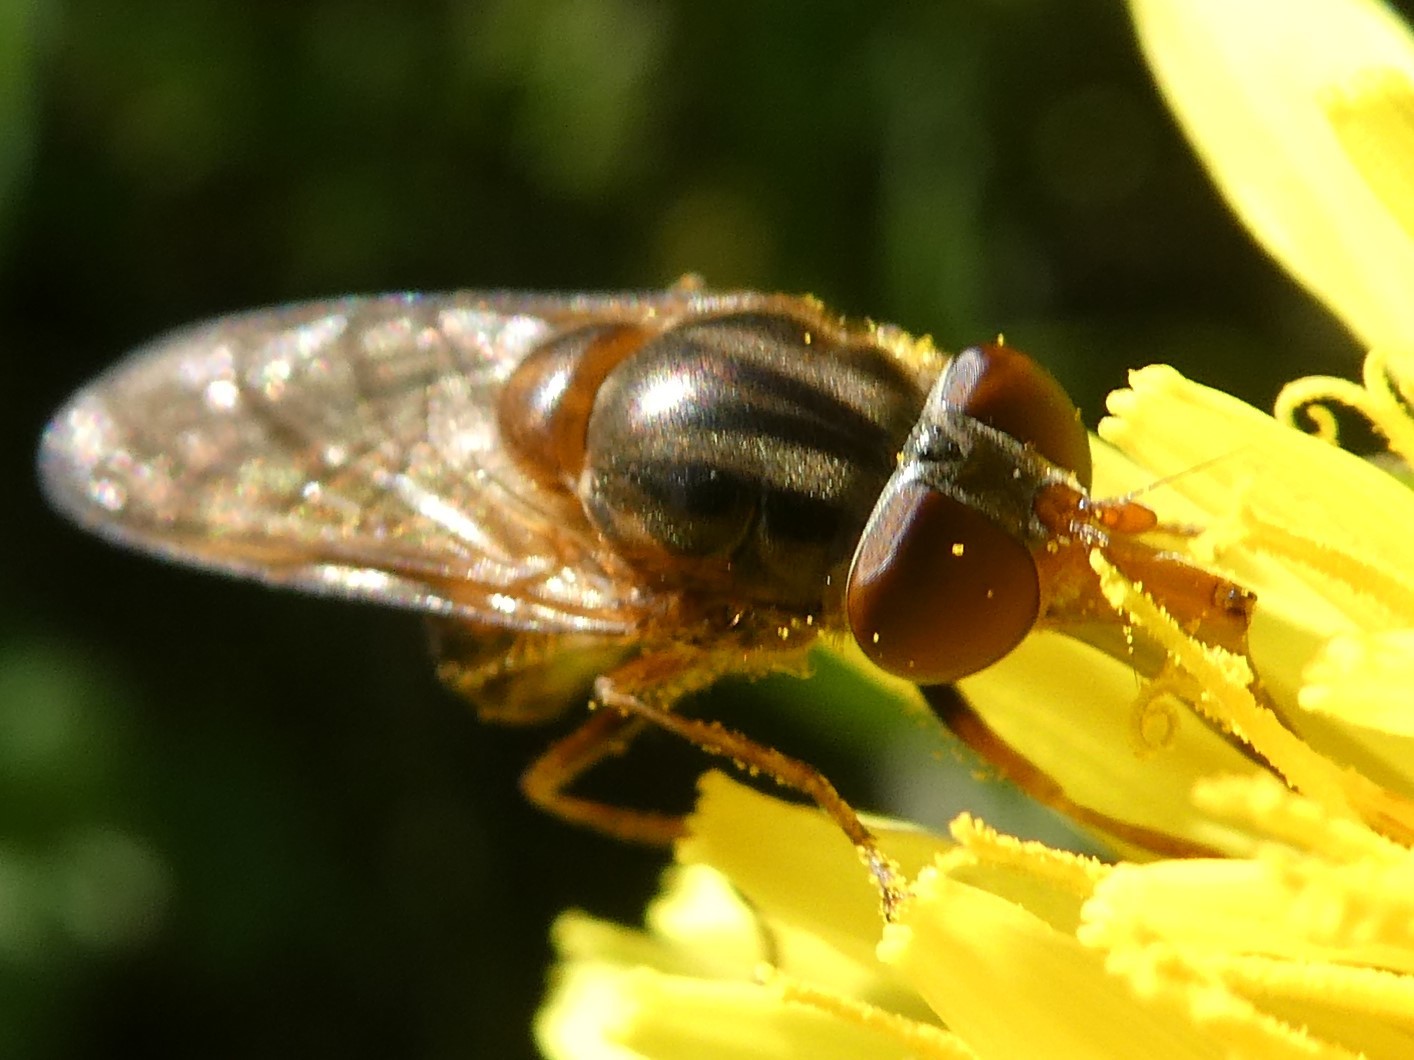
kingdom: Animalia
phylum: Arthropoda
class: Insecta
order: Diptera
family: Syrphidae
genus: Rhingia
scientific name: Rhingia nasica
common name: American snout fly
